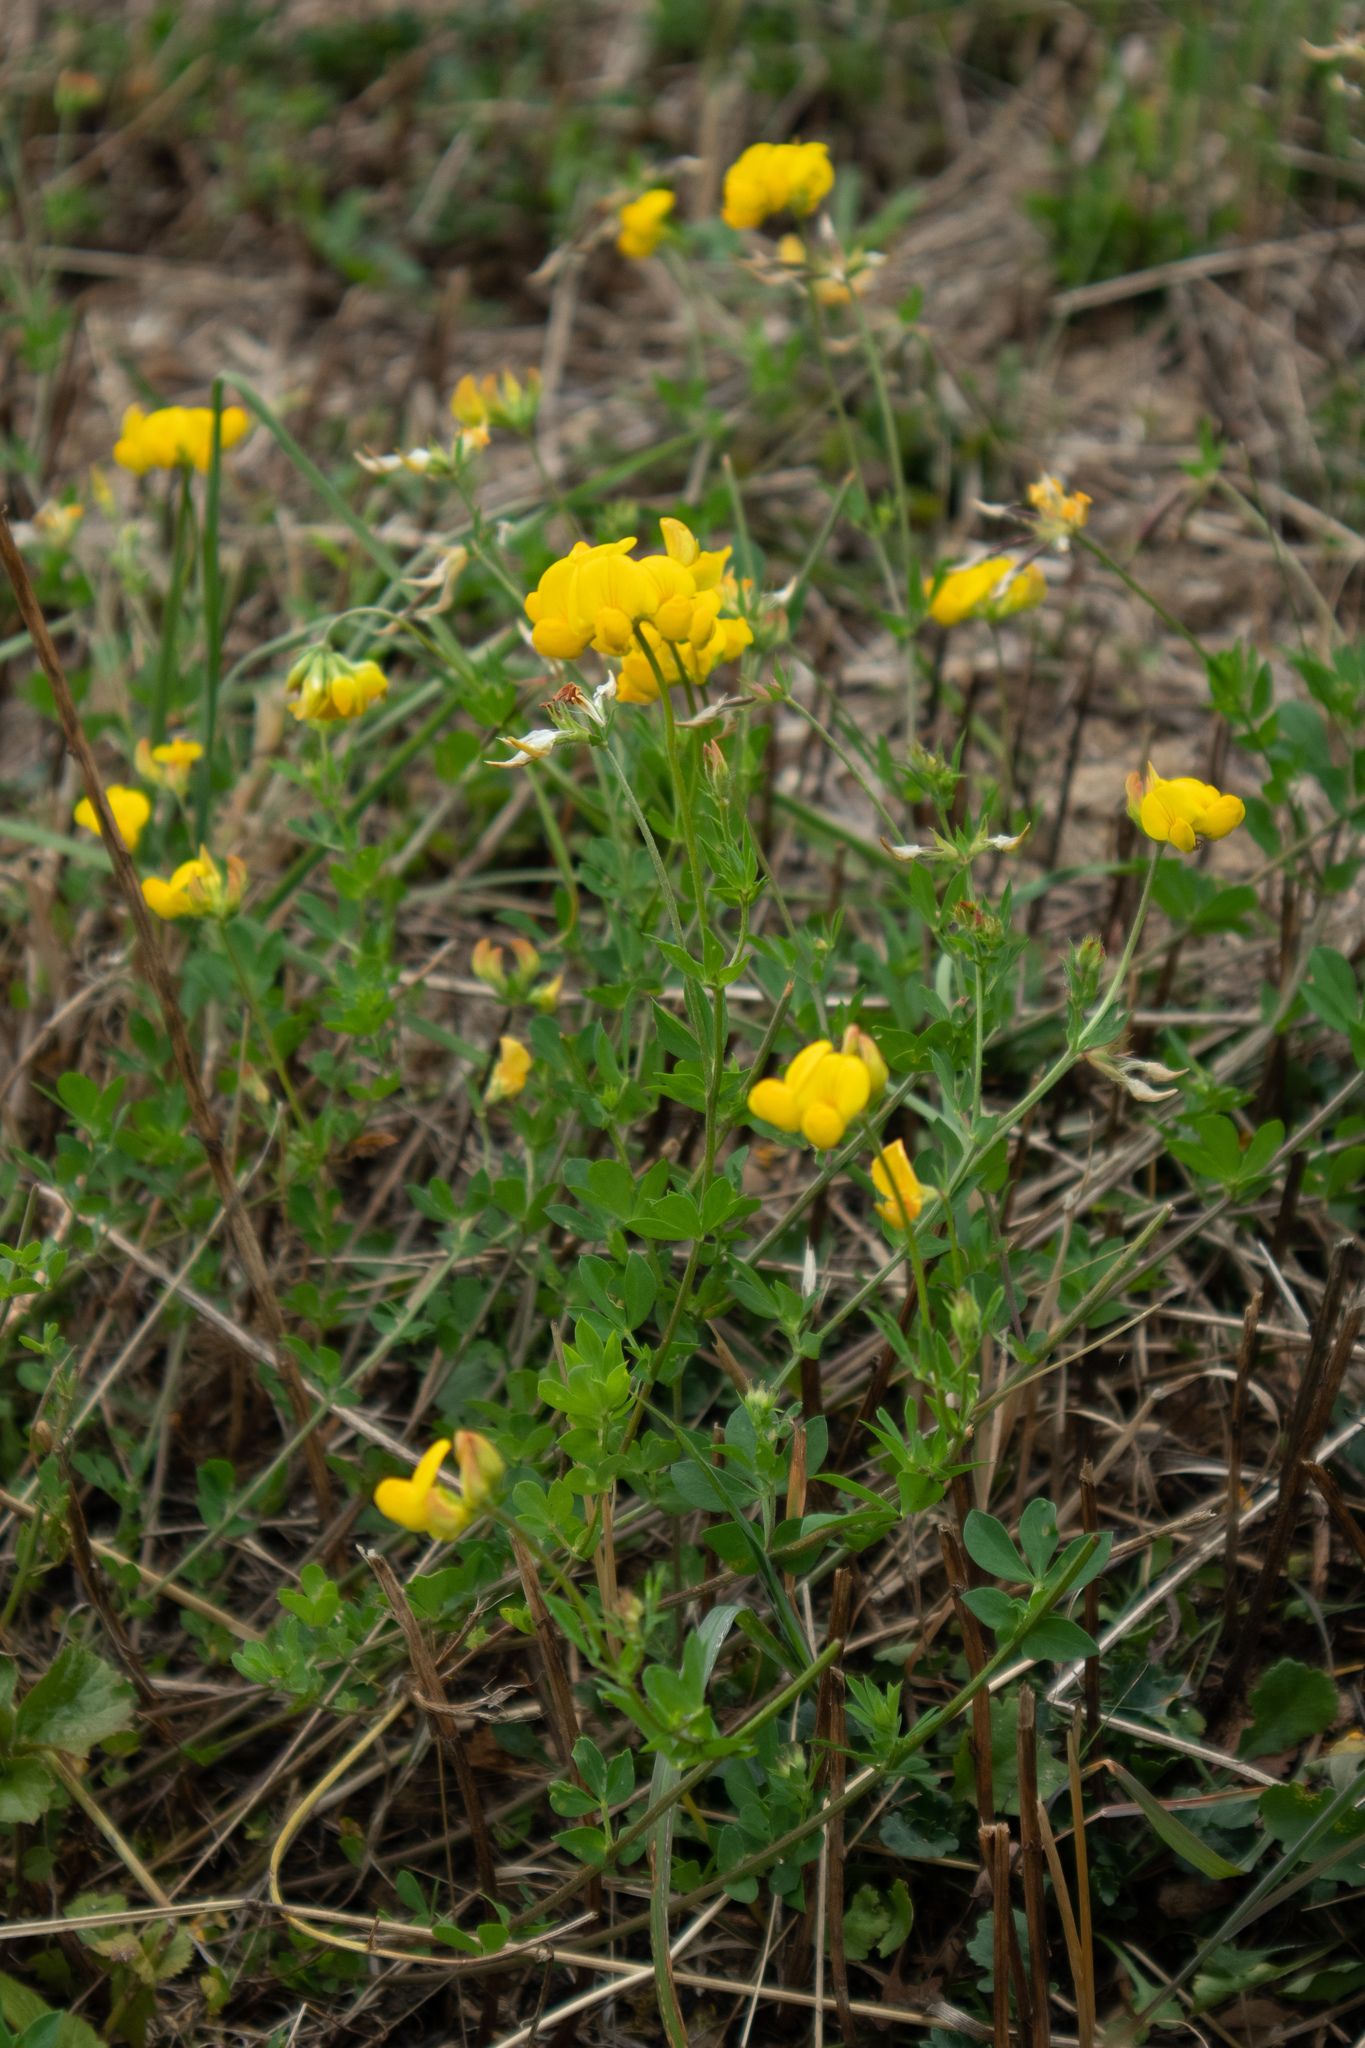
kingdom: Plantae
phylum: Tracheophyta
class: Magnoliopsida
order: Fabales
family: Fabaceae
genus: Lotus
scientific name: Lotus corniculatus
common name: Common bird's-foot-trefoil
